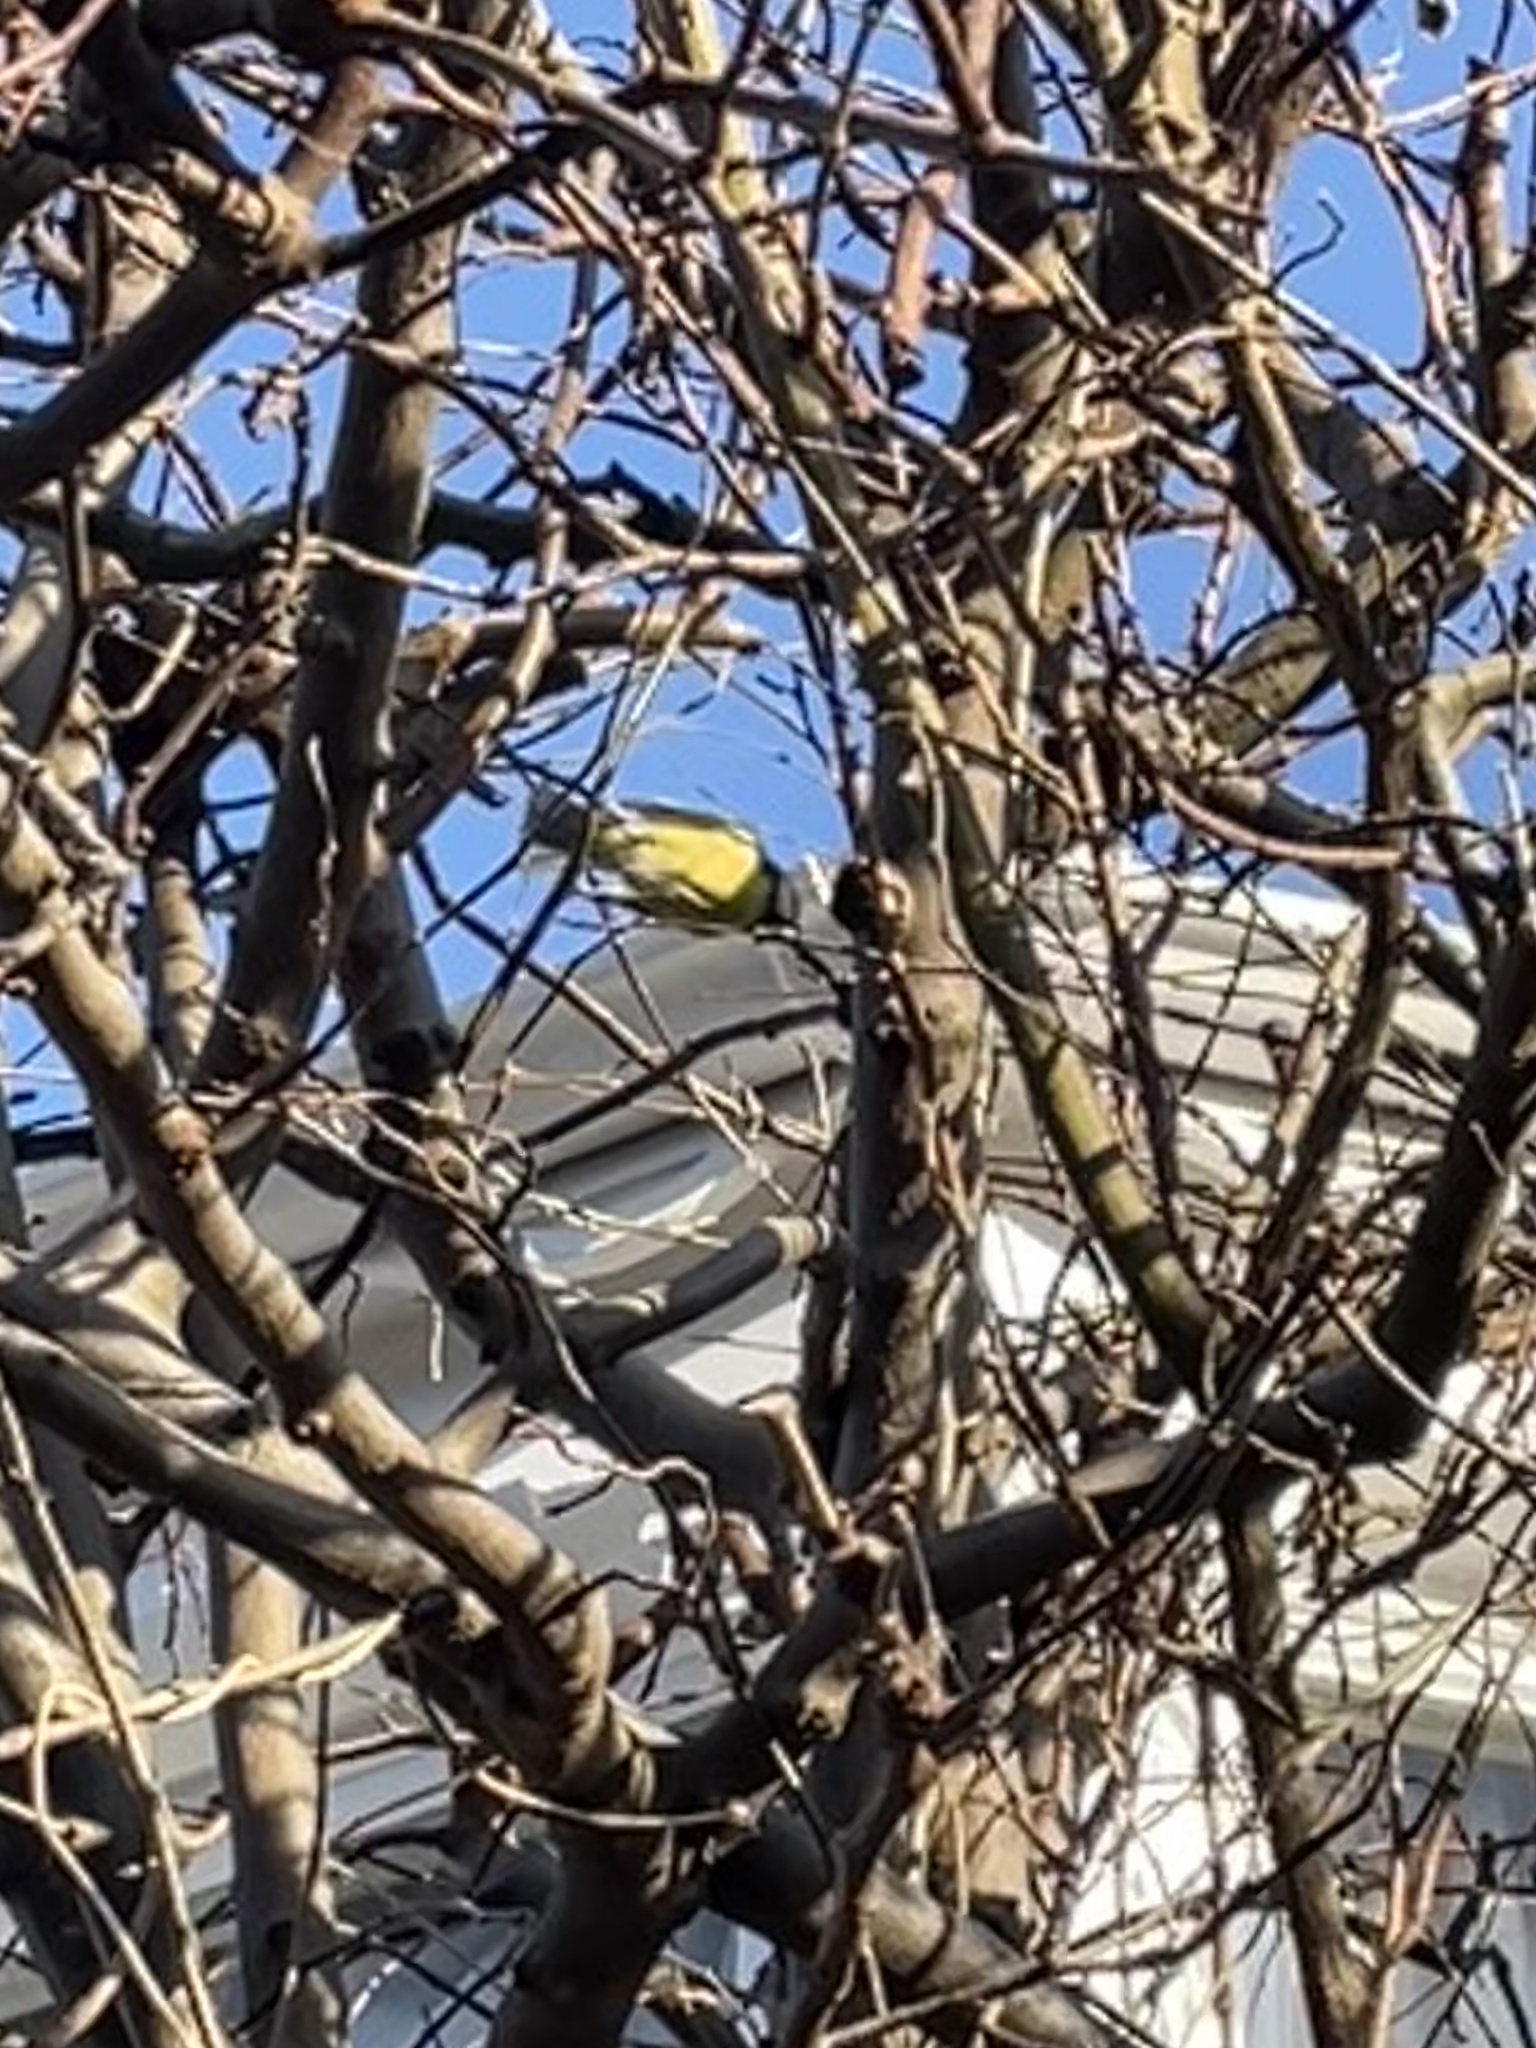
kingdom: Animalia
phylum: Chordata
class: Aves
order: Passeriformes
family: Paridae
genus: Cyanistes
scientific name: Cyanistes caeruleus
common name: Eurasian blue tit
